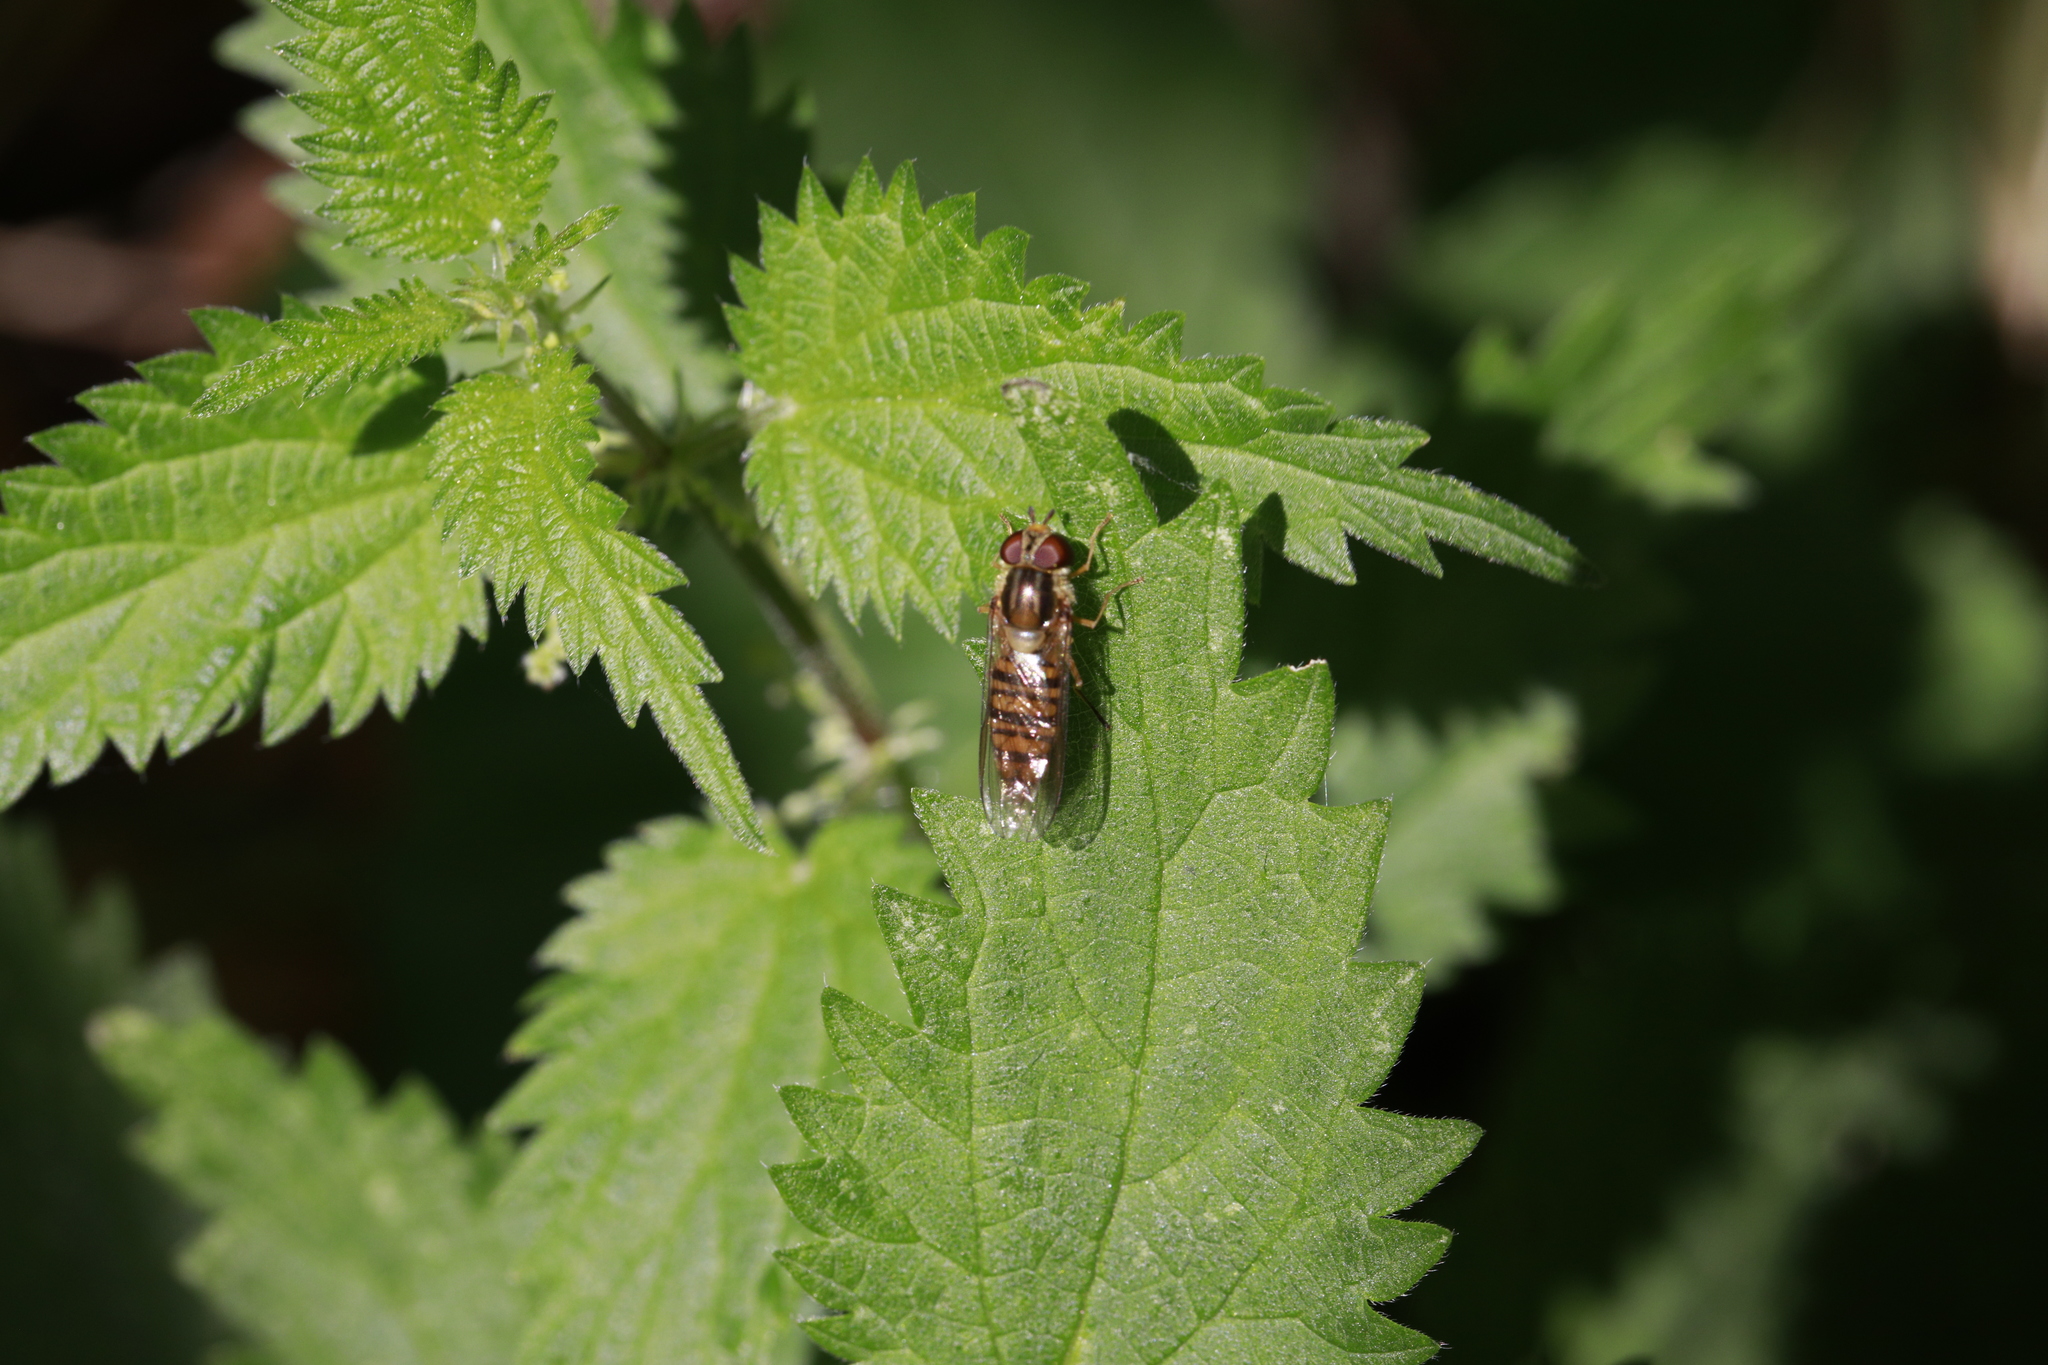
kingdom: Animalia
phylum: Arthropoda
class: Insecta
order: Diptera
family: Syrphidae
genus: Episyrphus
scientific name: Episyrphus balteatus
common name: Marmalade hoverfly
